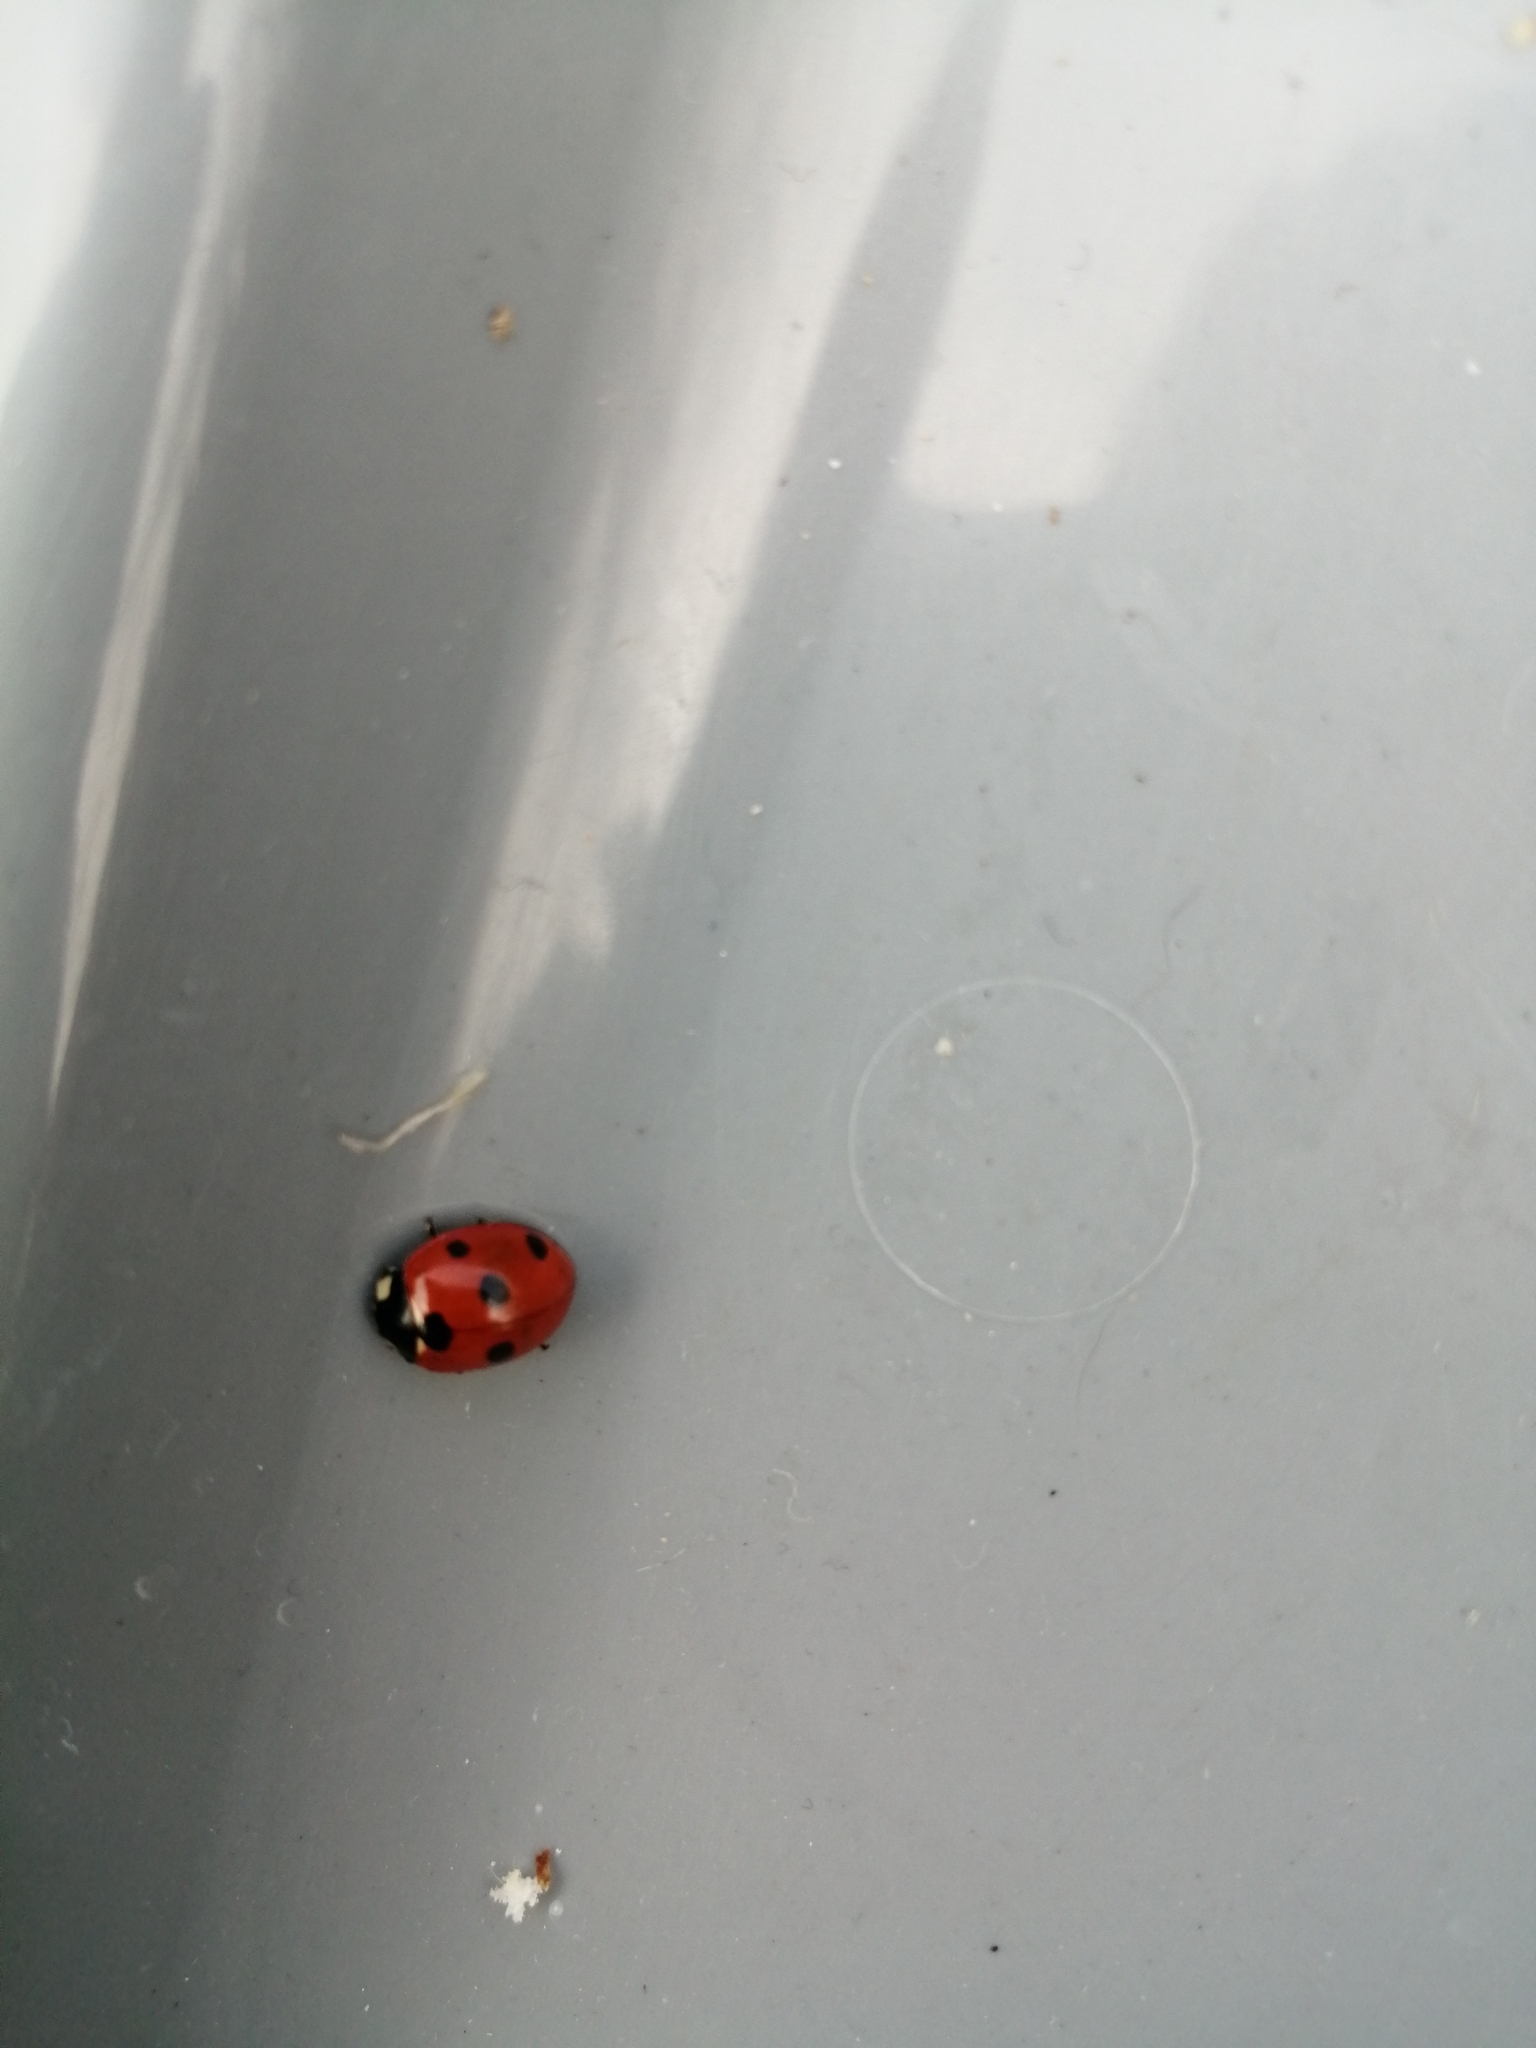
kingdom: Animalia
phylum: Arthropoda
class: Insecta
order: Coleoptera
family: Coccinellidae
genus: Coccinella
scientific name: Coccinella septempunctata
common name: Sevenspotted lady beetle
